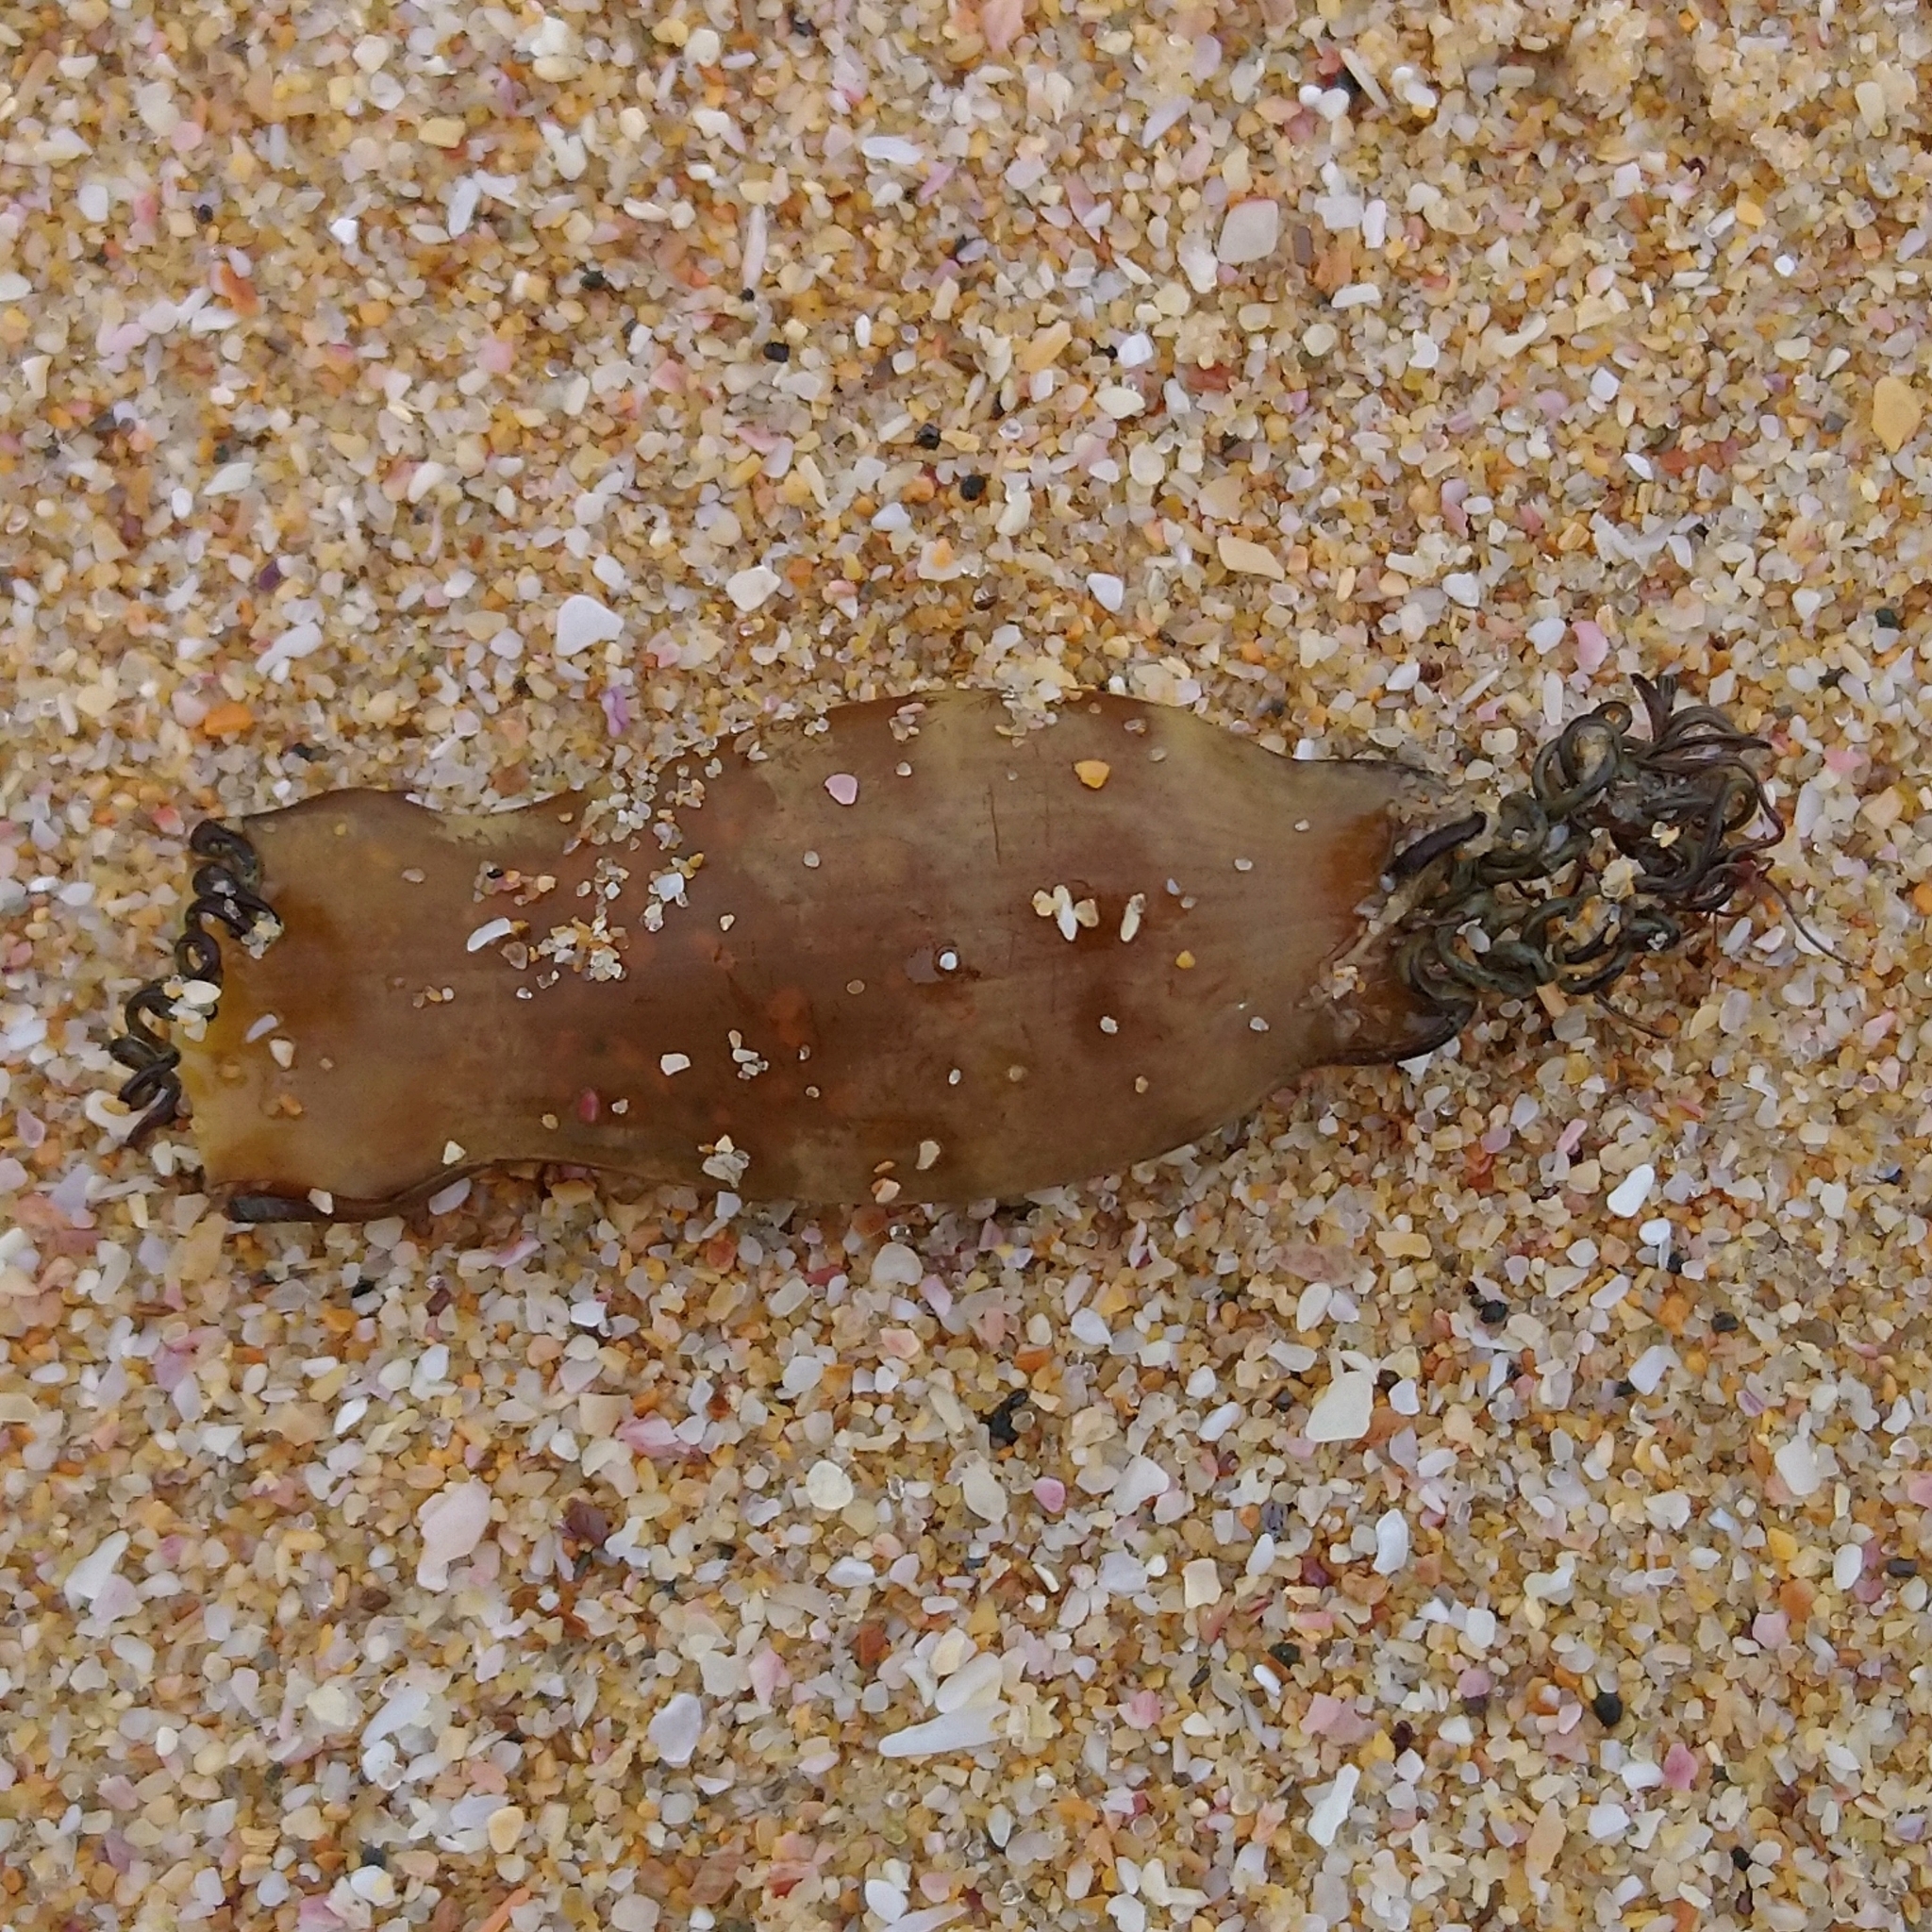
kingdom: Animalia
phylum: Chordata
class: Elasmobranchii
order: Carcharhiniformes
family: Scyliorhinidae
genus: Haploblepharus
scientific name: Haploblepharus edwardsii
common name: Puffadder shyshark
